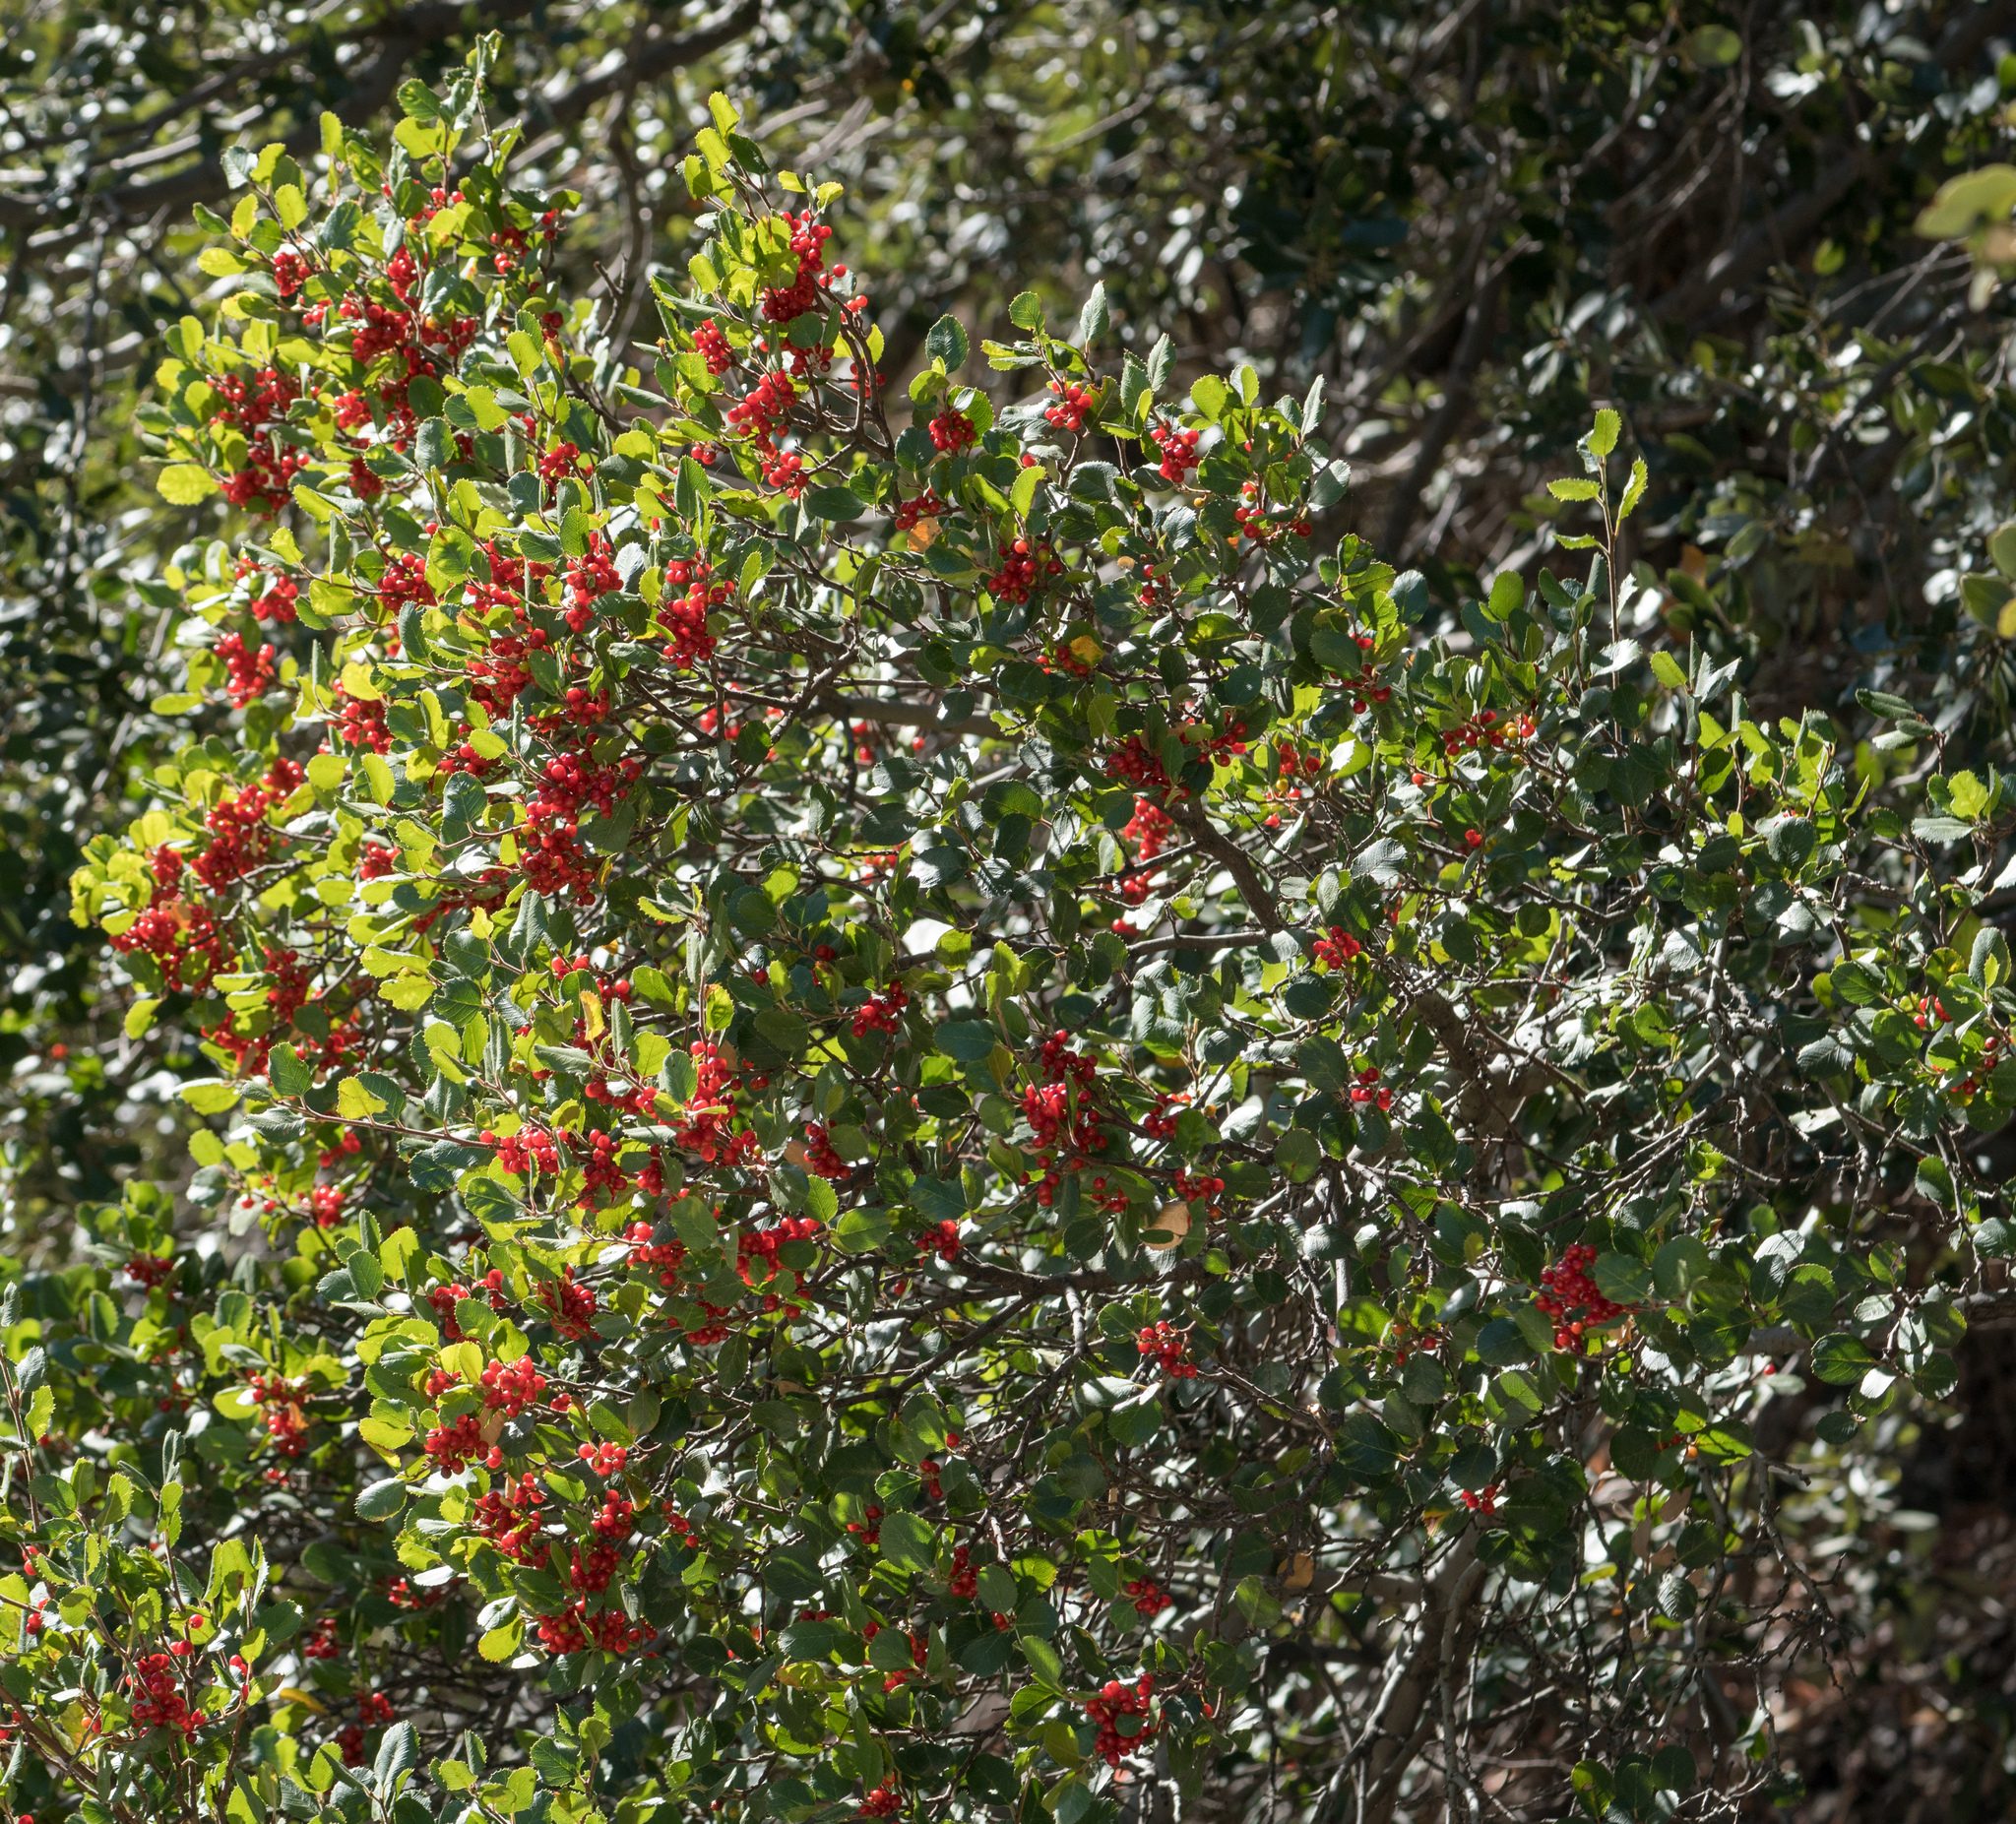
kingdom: Plantae
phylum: Tracheophyta
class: Magnoliopsida
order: Rosales
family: Rhamnaceae
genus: Endotropis
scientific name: Endotropis crocea
